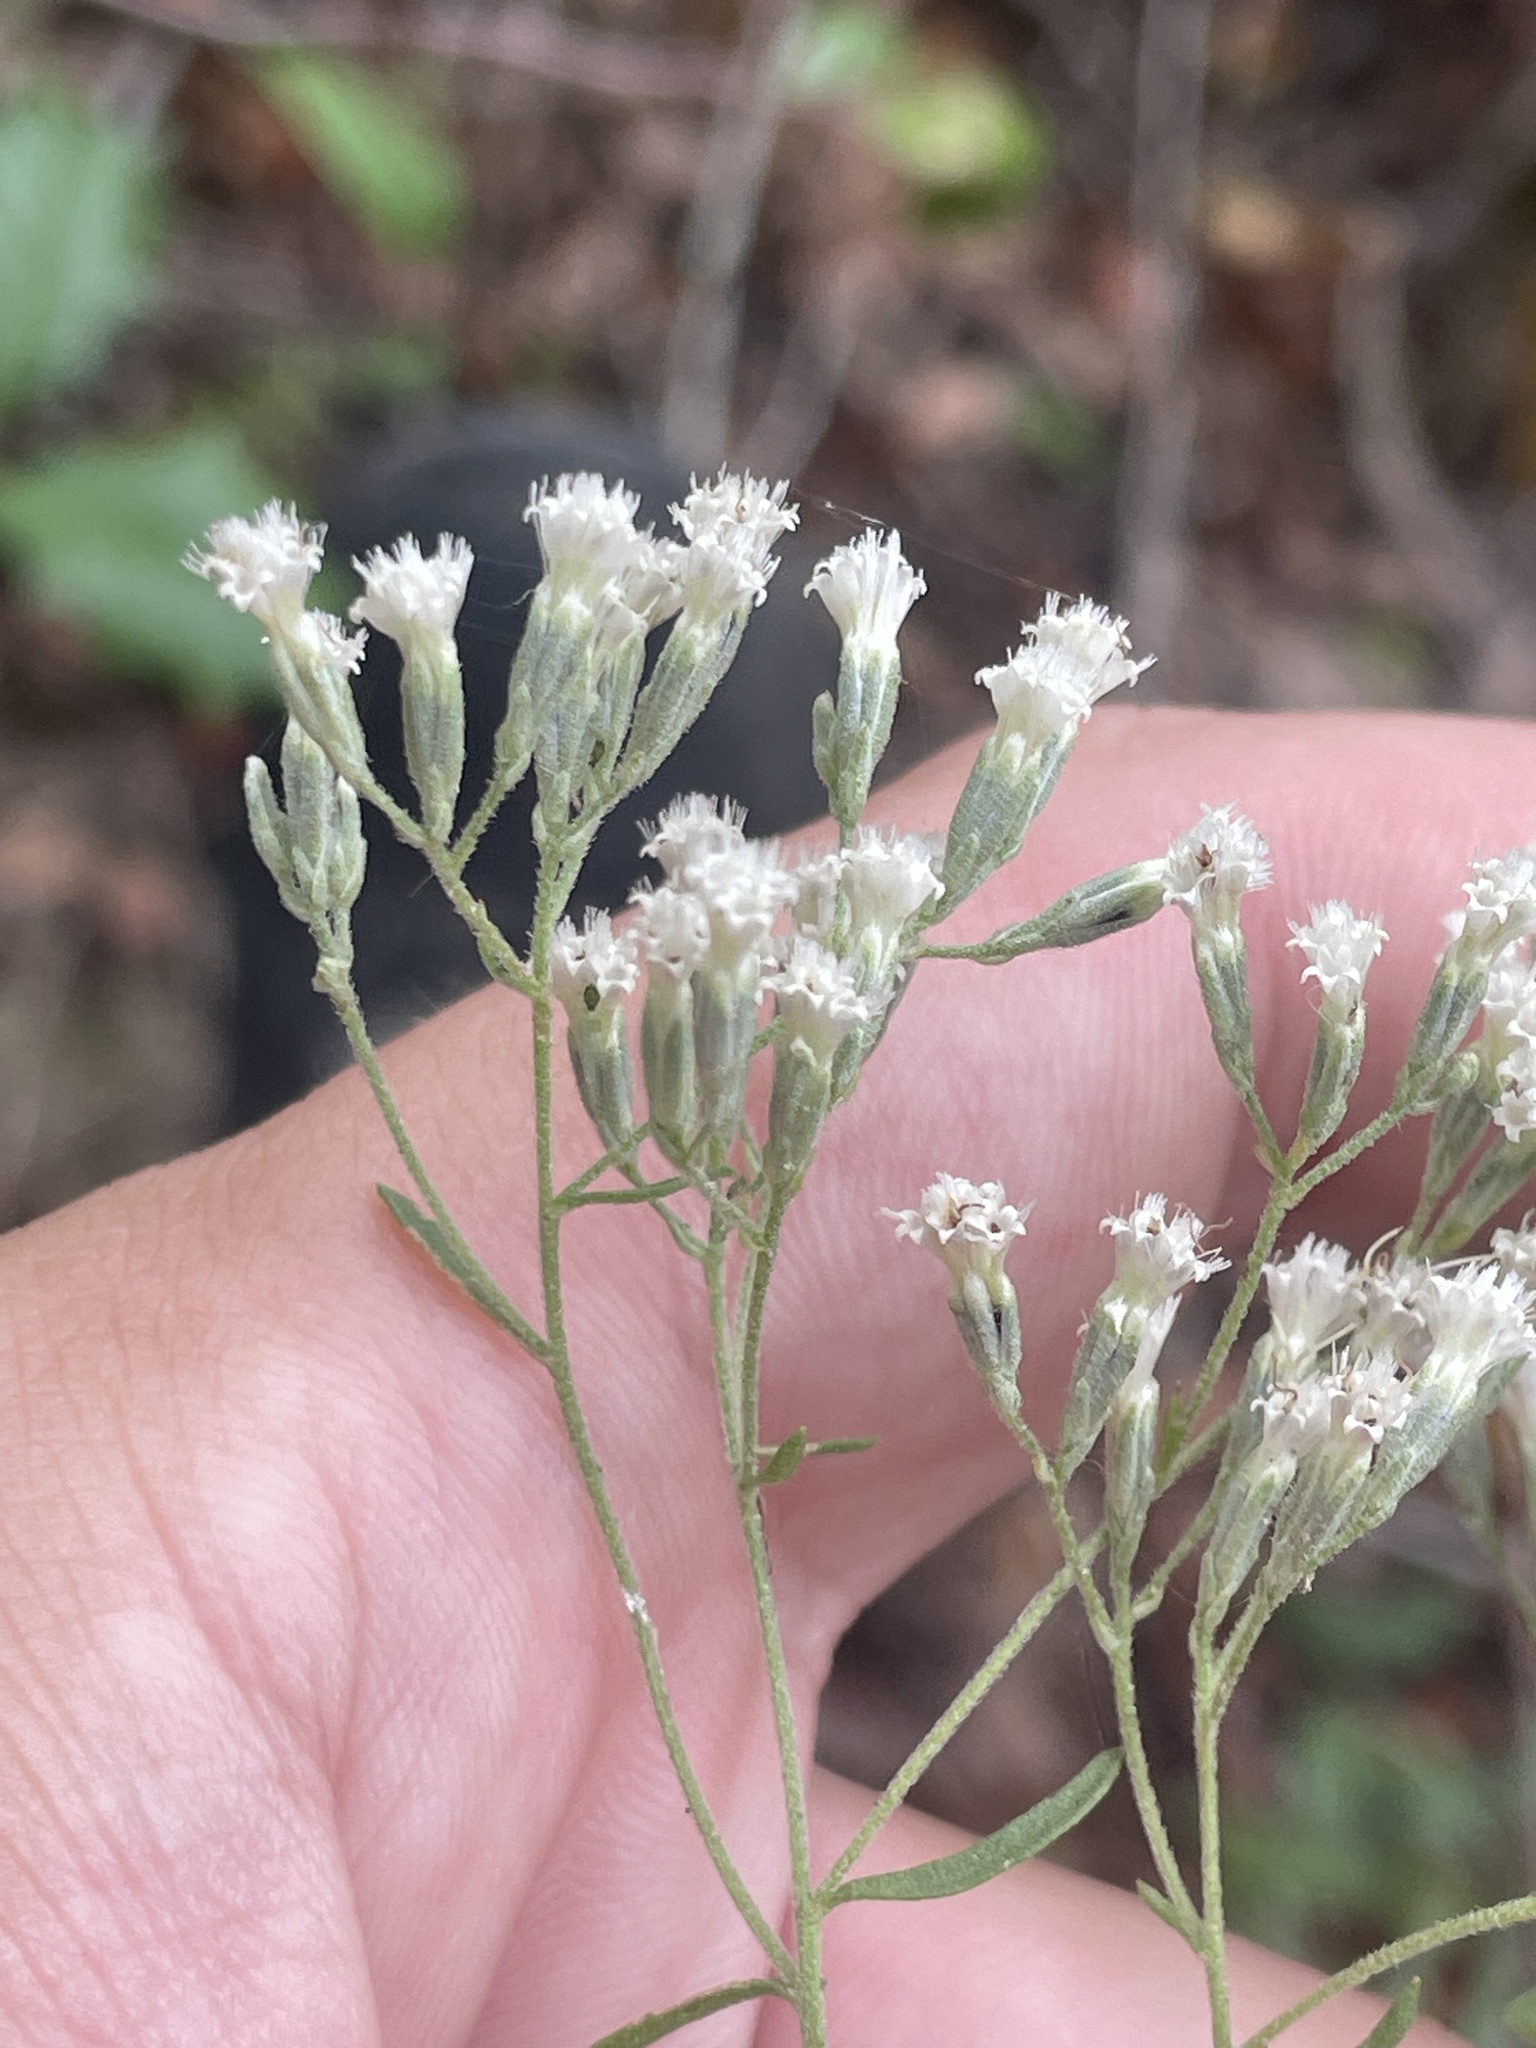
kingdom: Plantae
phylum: Tracheophyta
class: Magnoliopsida
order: Asterales
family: Asteraceae
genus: Eupatorium
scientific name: Eupatorium hyssopifolium
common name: Hyssop-leaf thoroughwort
